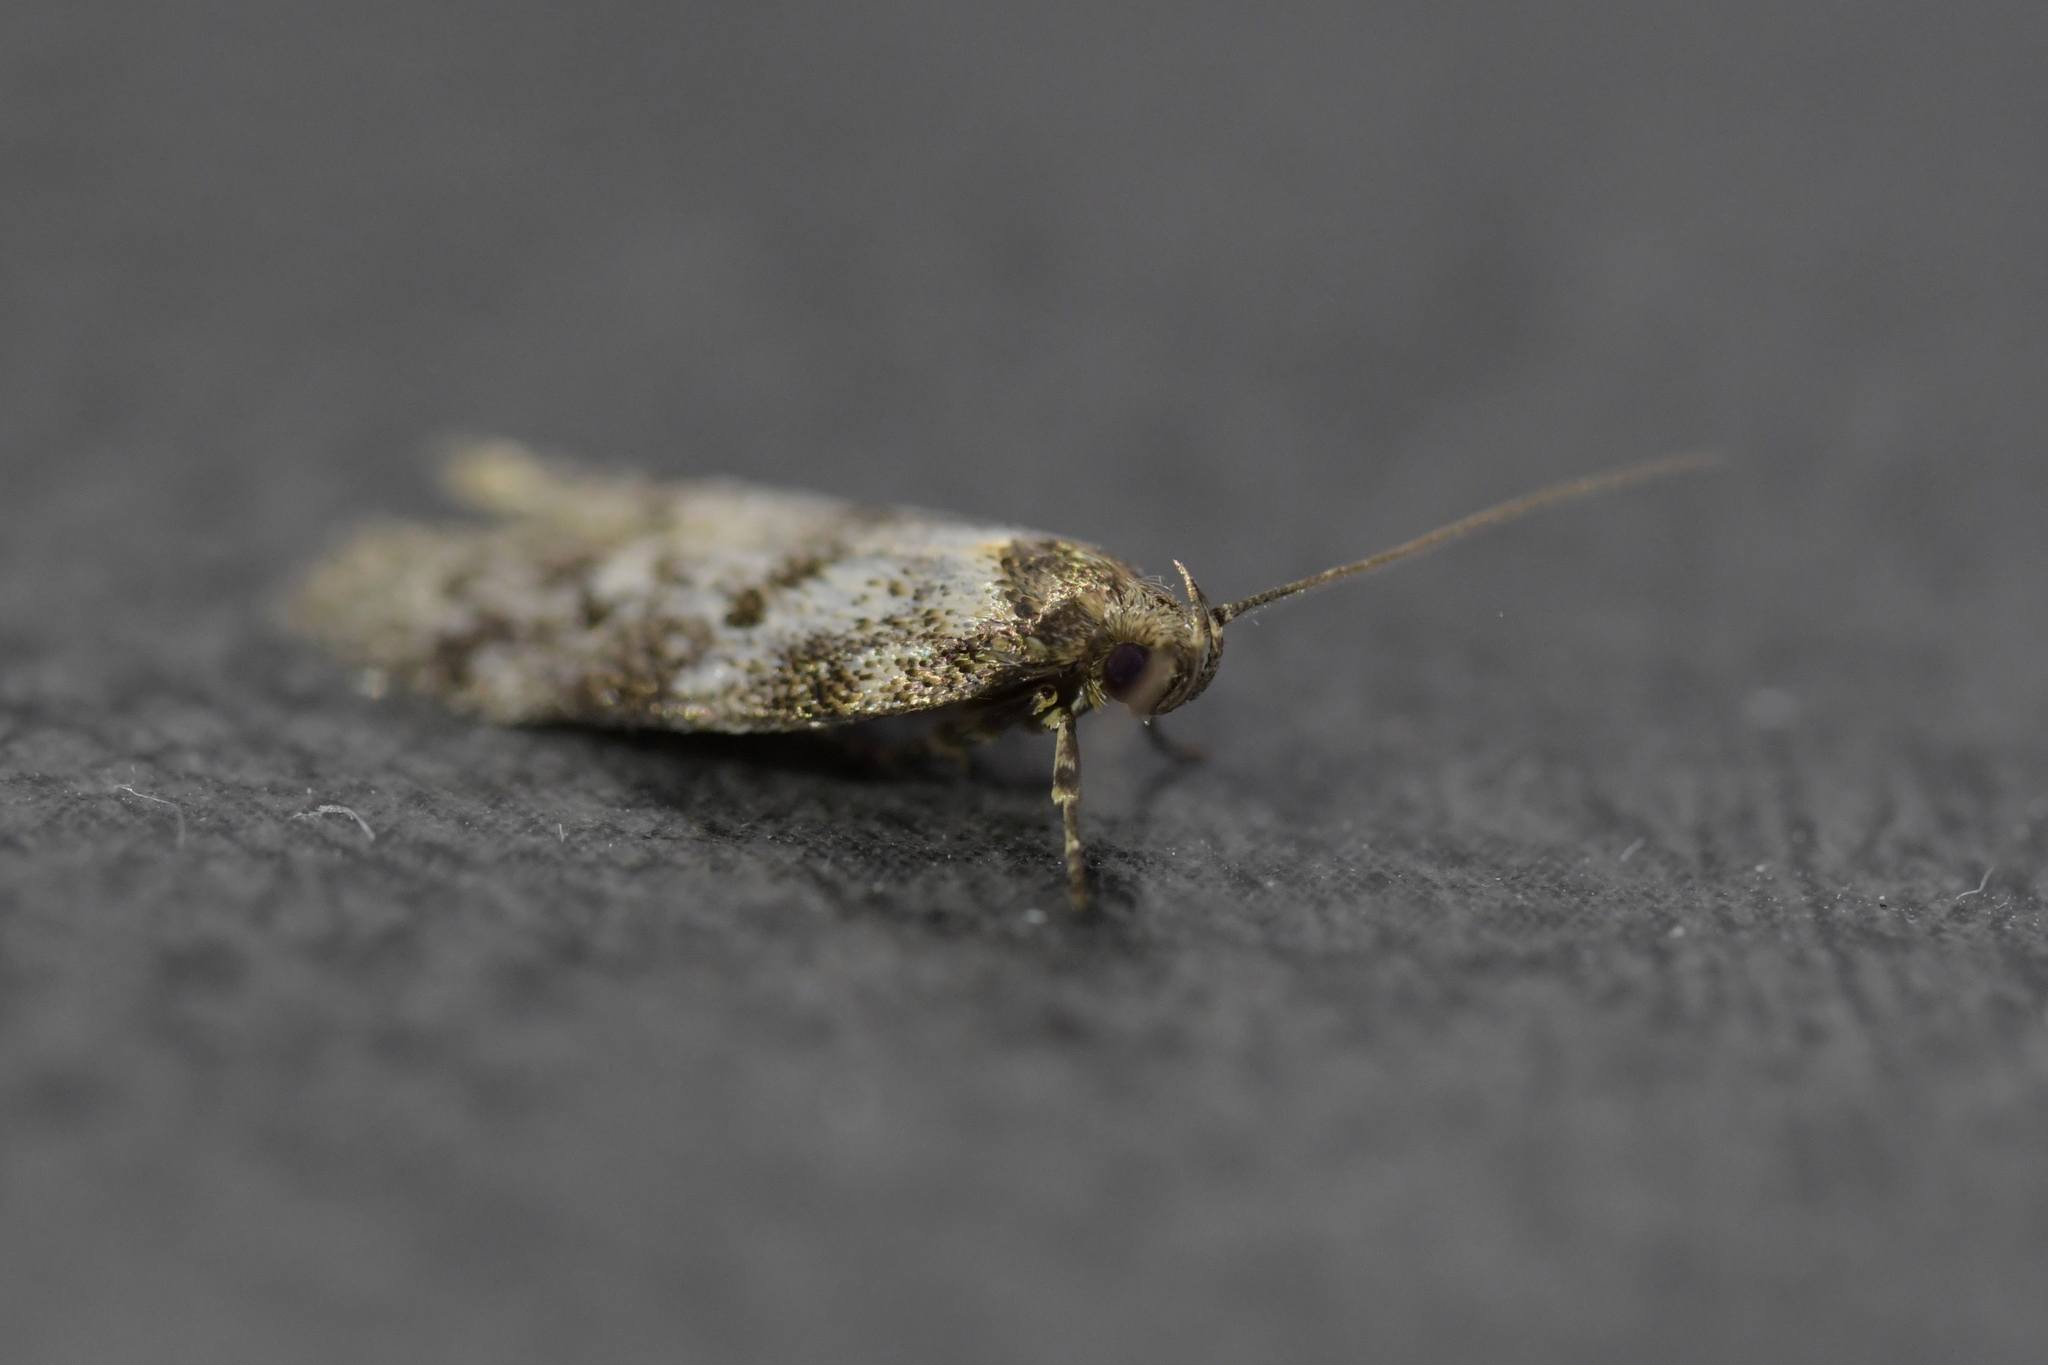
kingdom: Animalia
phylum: Arthropoda
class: Insecta
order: Lepidoptera
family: Oecophoridae
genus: Trachypepla
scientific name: Trachypepla photinella
